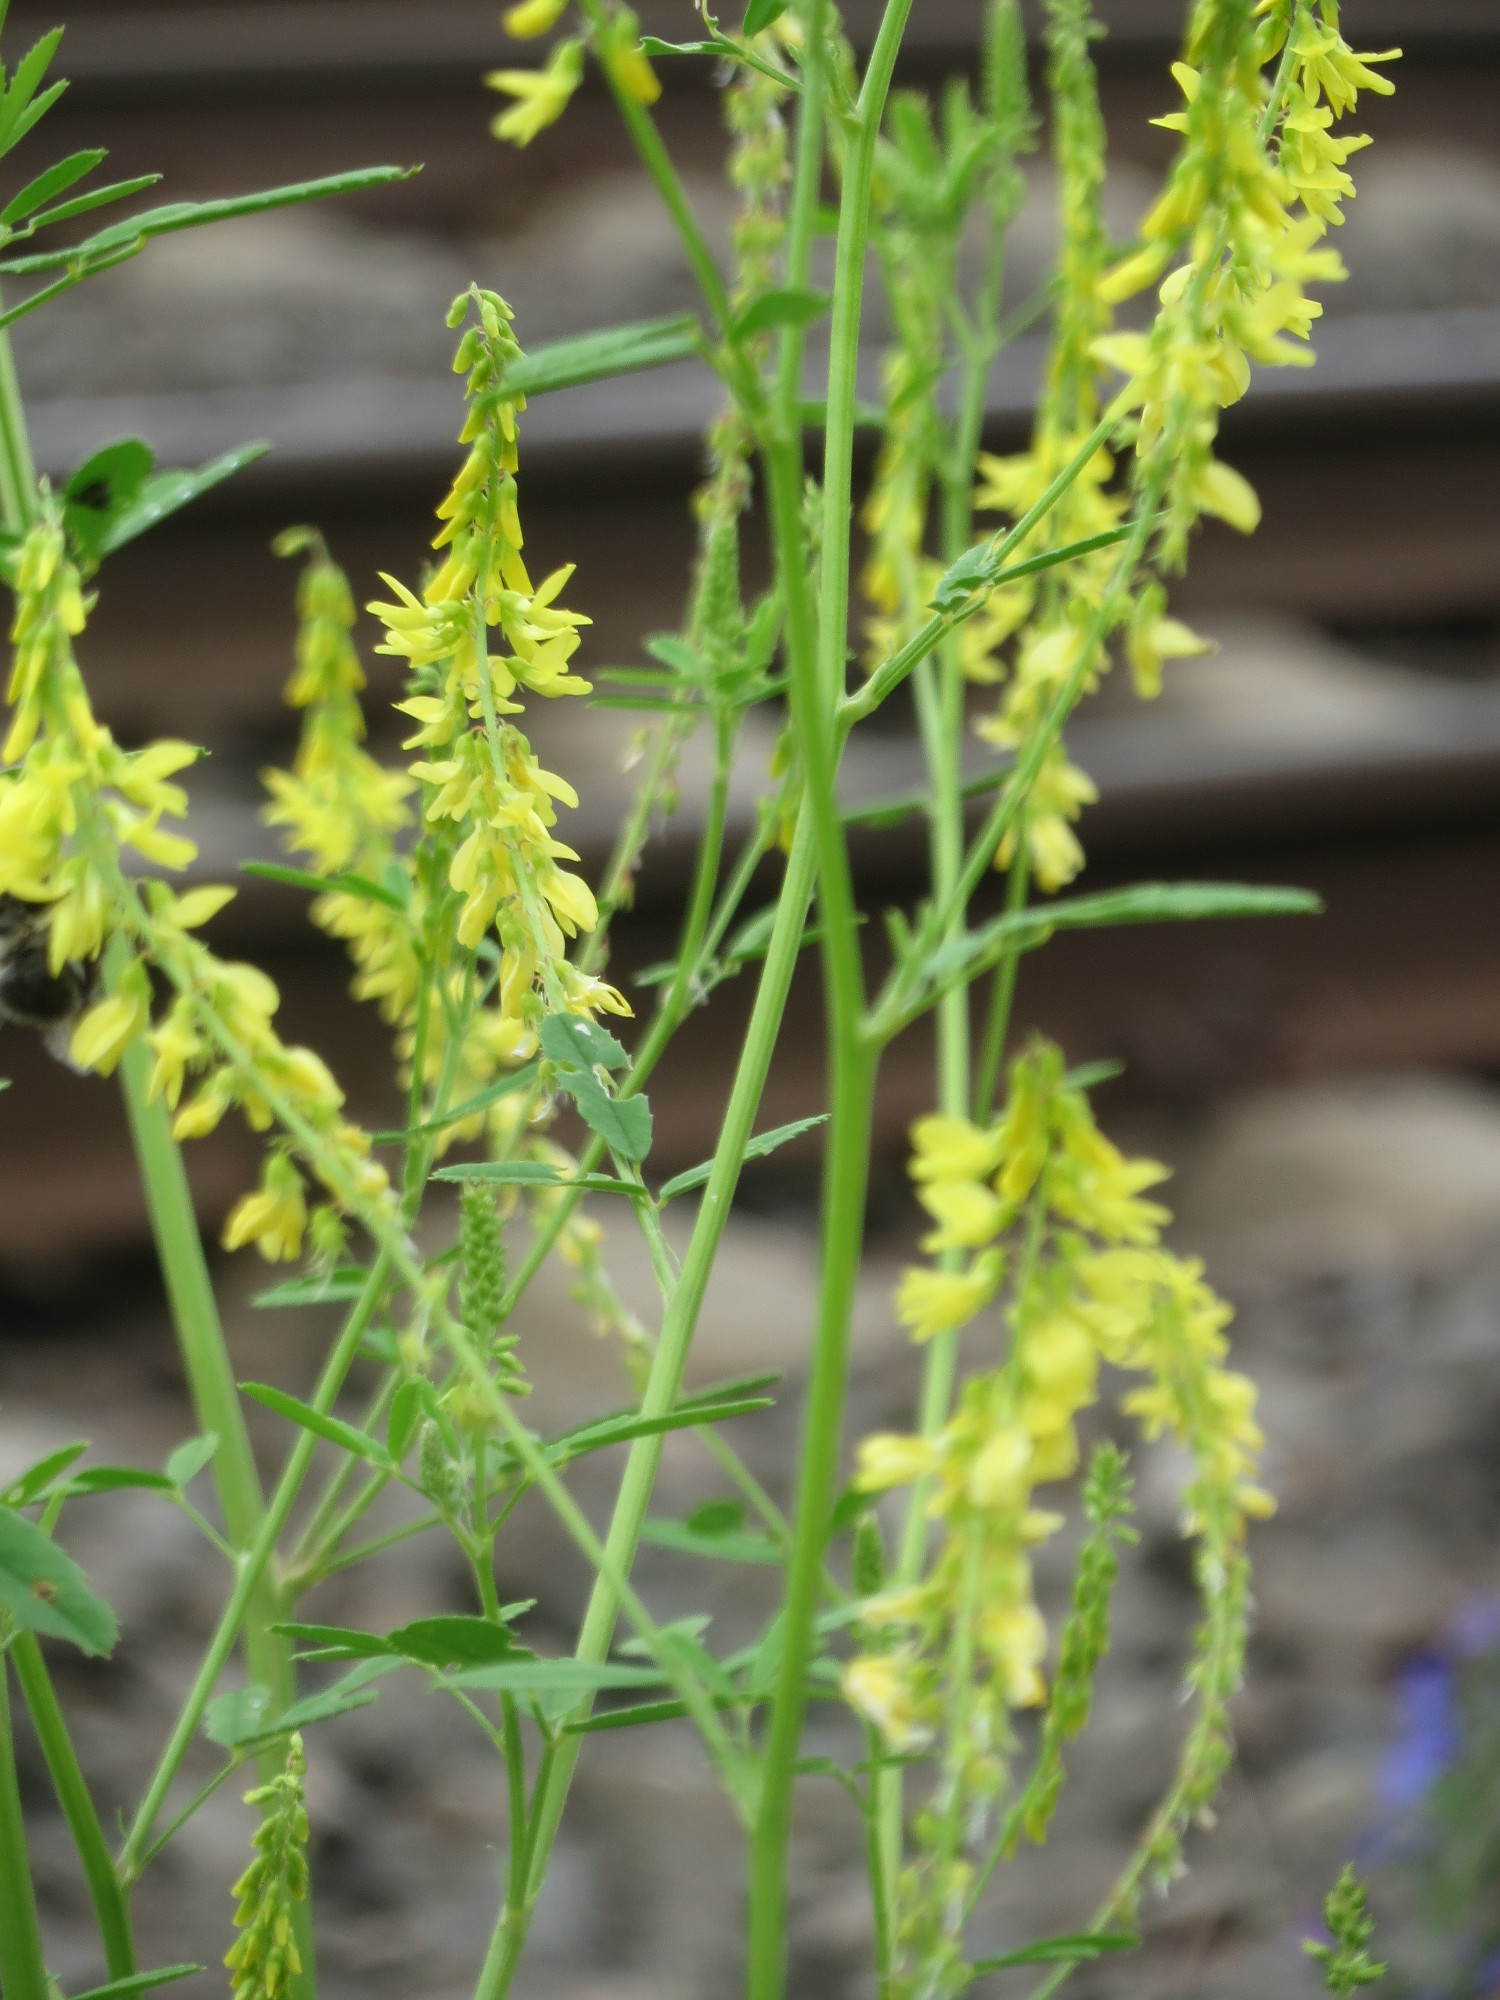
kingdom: Plantae
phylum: Tracheophyta
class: Magnoliopsida
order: Fabales
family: Fabaceae
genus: Melilotus
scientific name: Melilotus officinalis
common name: Sweetclover
